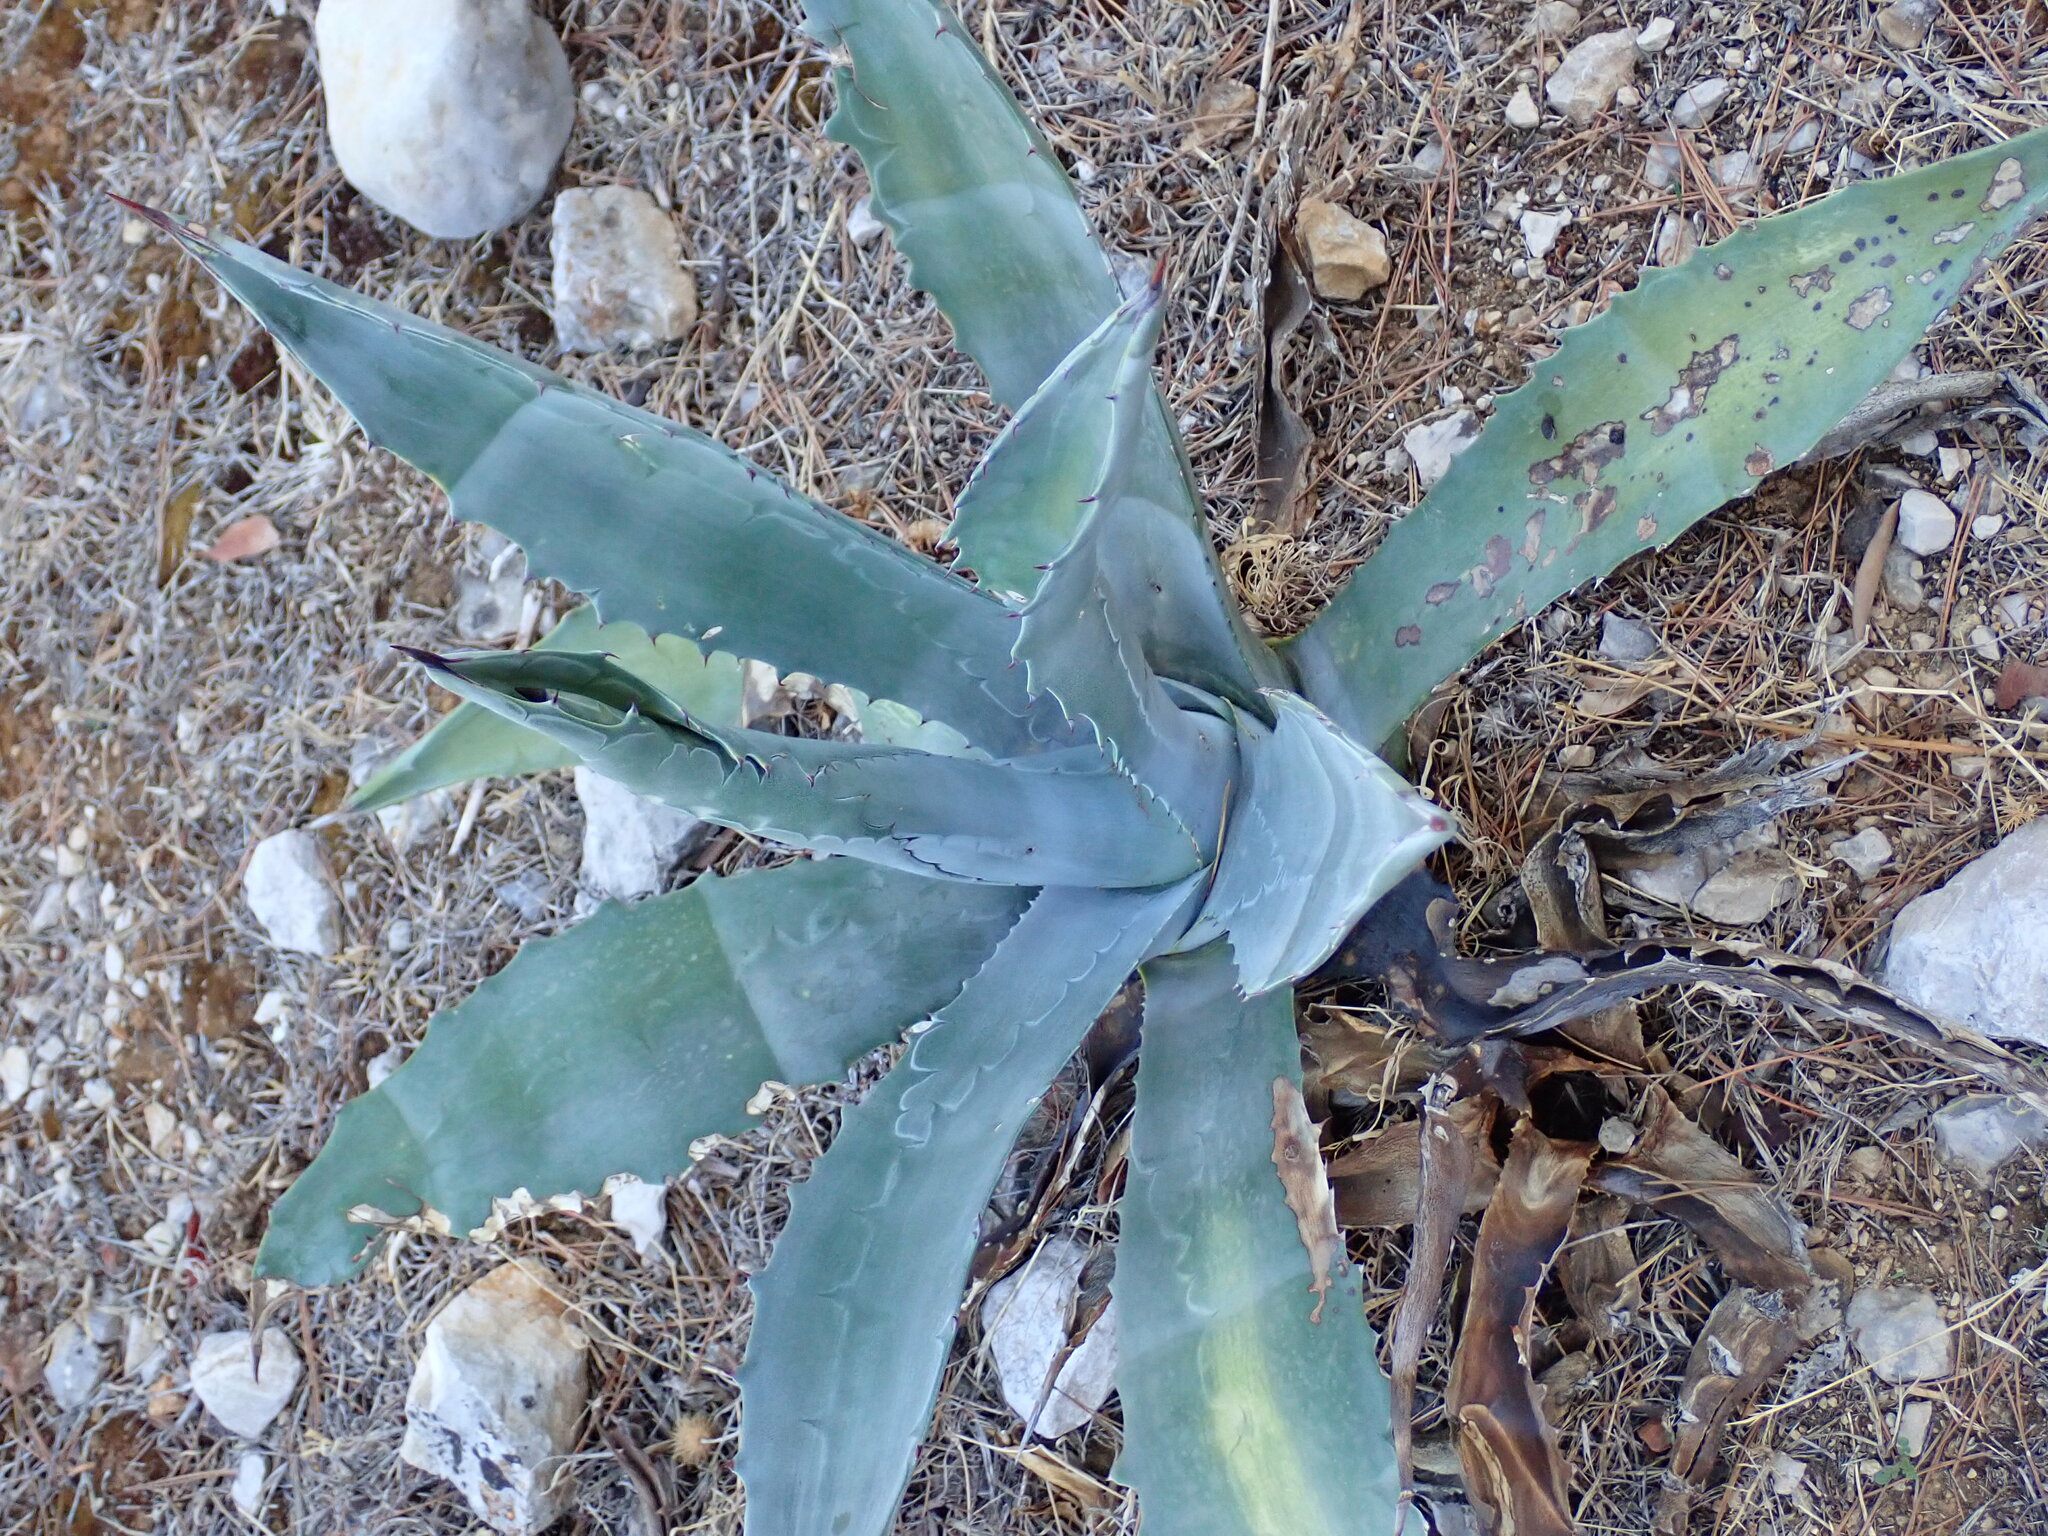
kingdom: Plantae
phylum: Tracheophyta
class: Liliopsida
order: Asparagales
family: Asparagaceae
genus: Agave
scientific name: Agave americana
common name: Centuryplant
